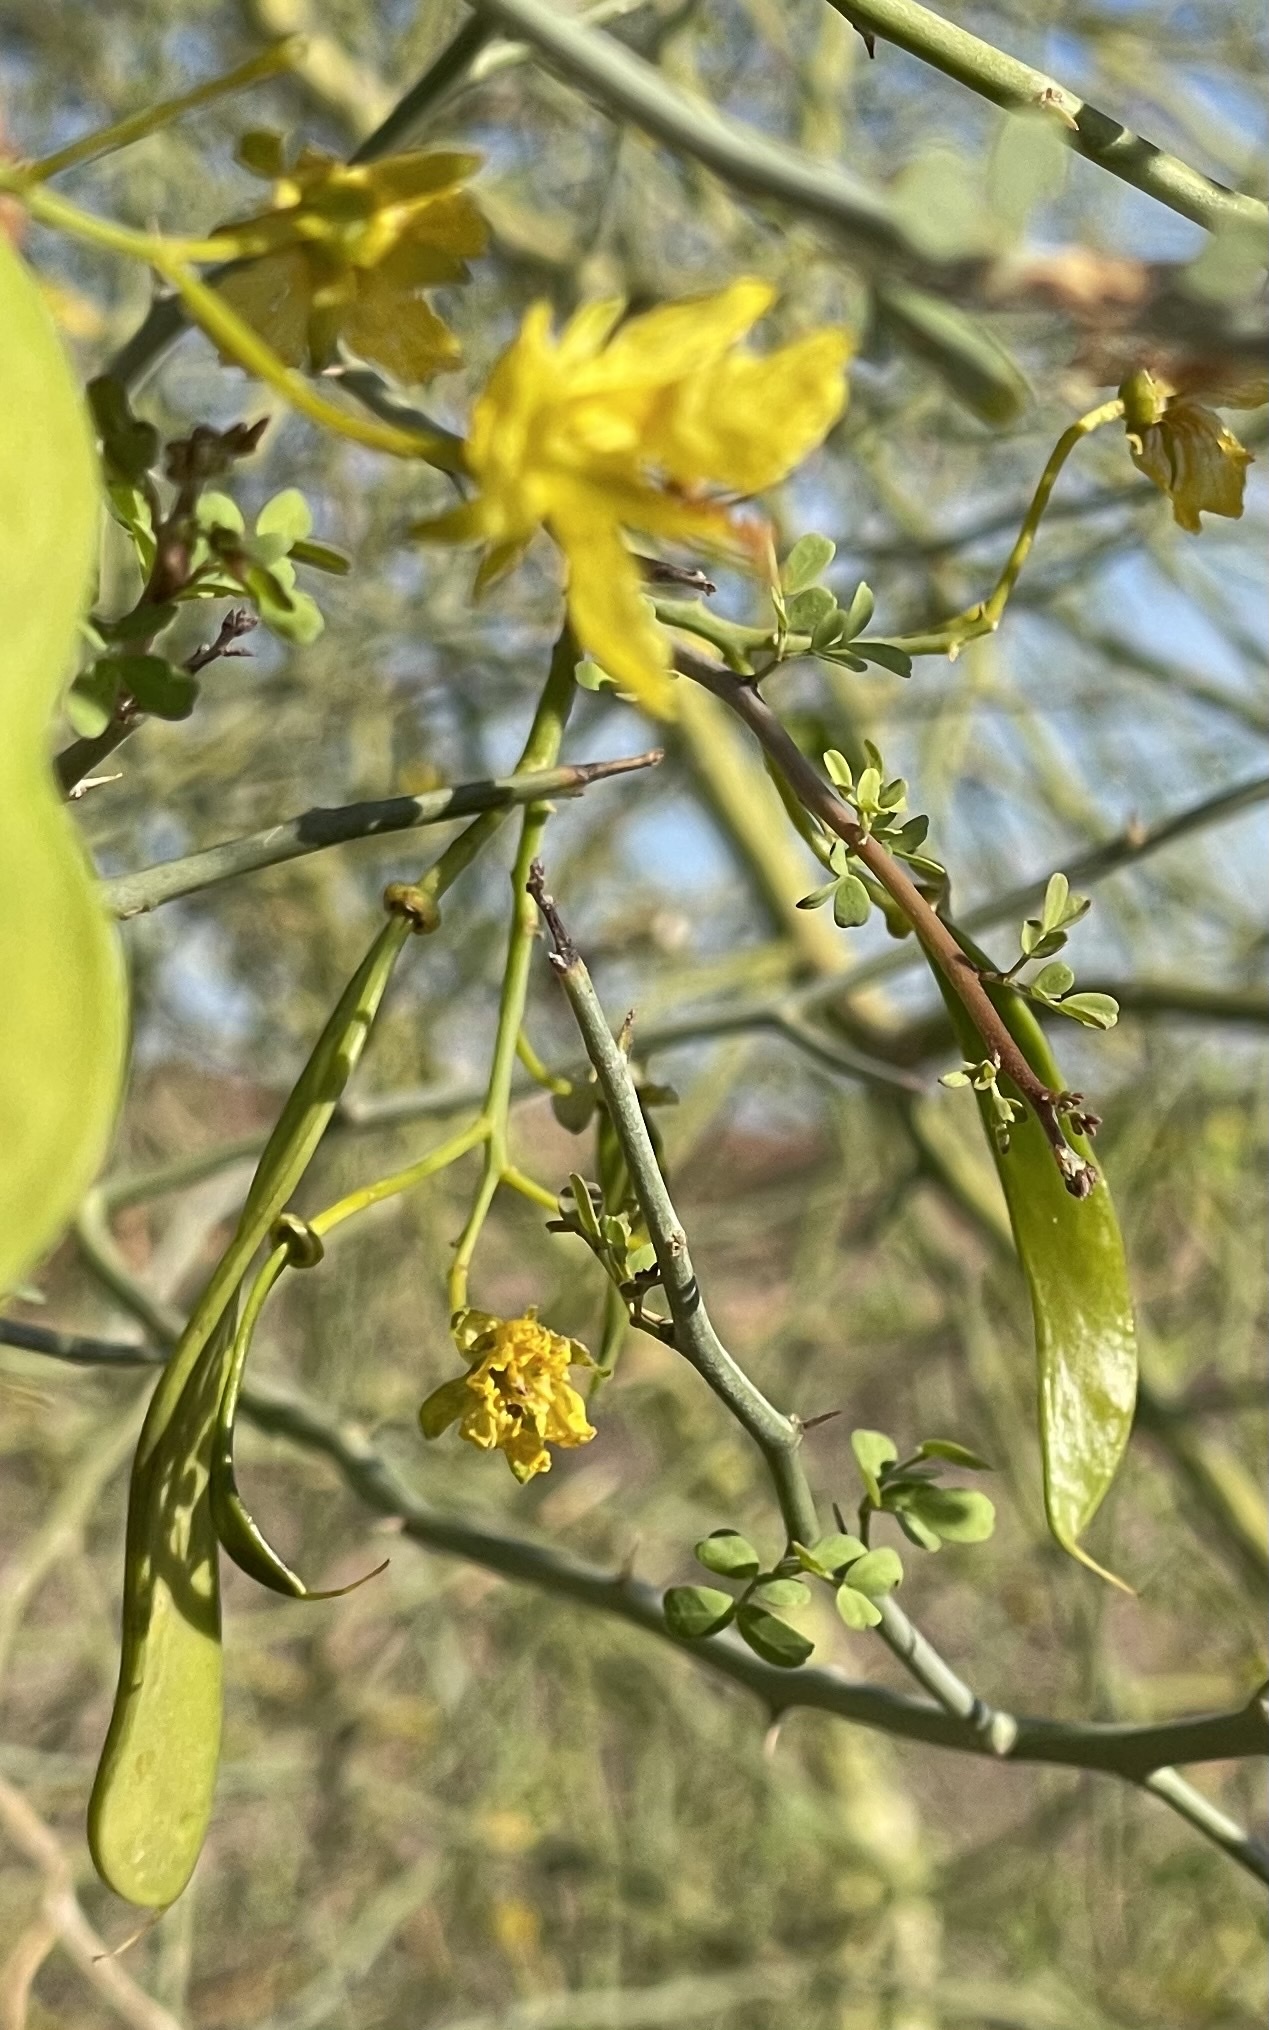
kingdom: Plantae
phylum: Tracheophyta
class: Magnoliopsida
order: Fabales
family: Fabaceae
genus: Parkinsonia
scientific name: Parkinsonia florida
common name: Blue paloverde
